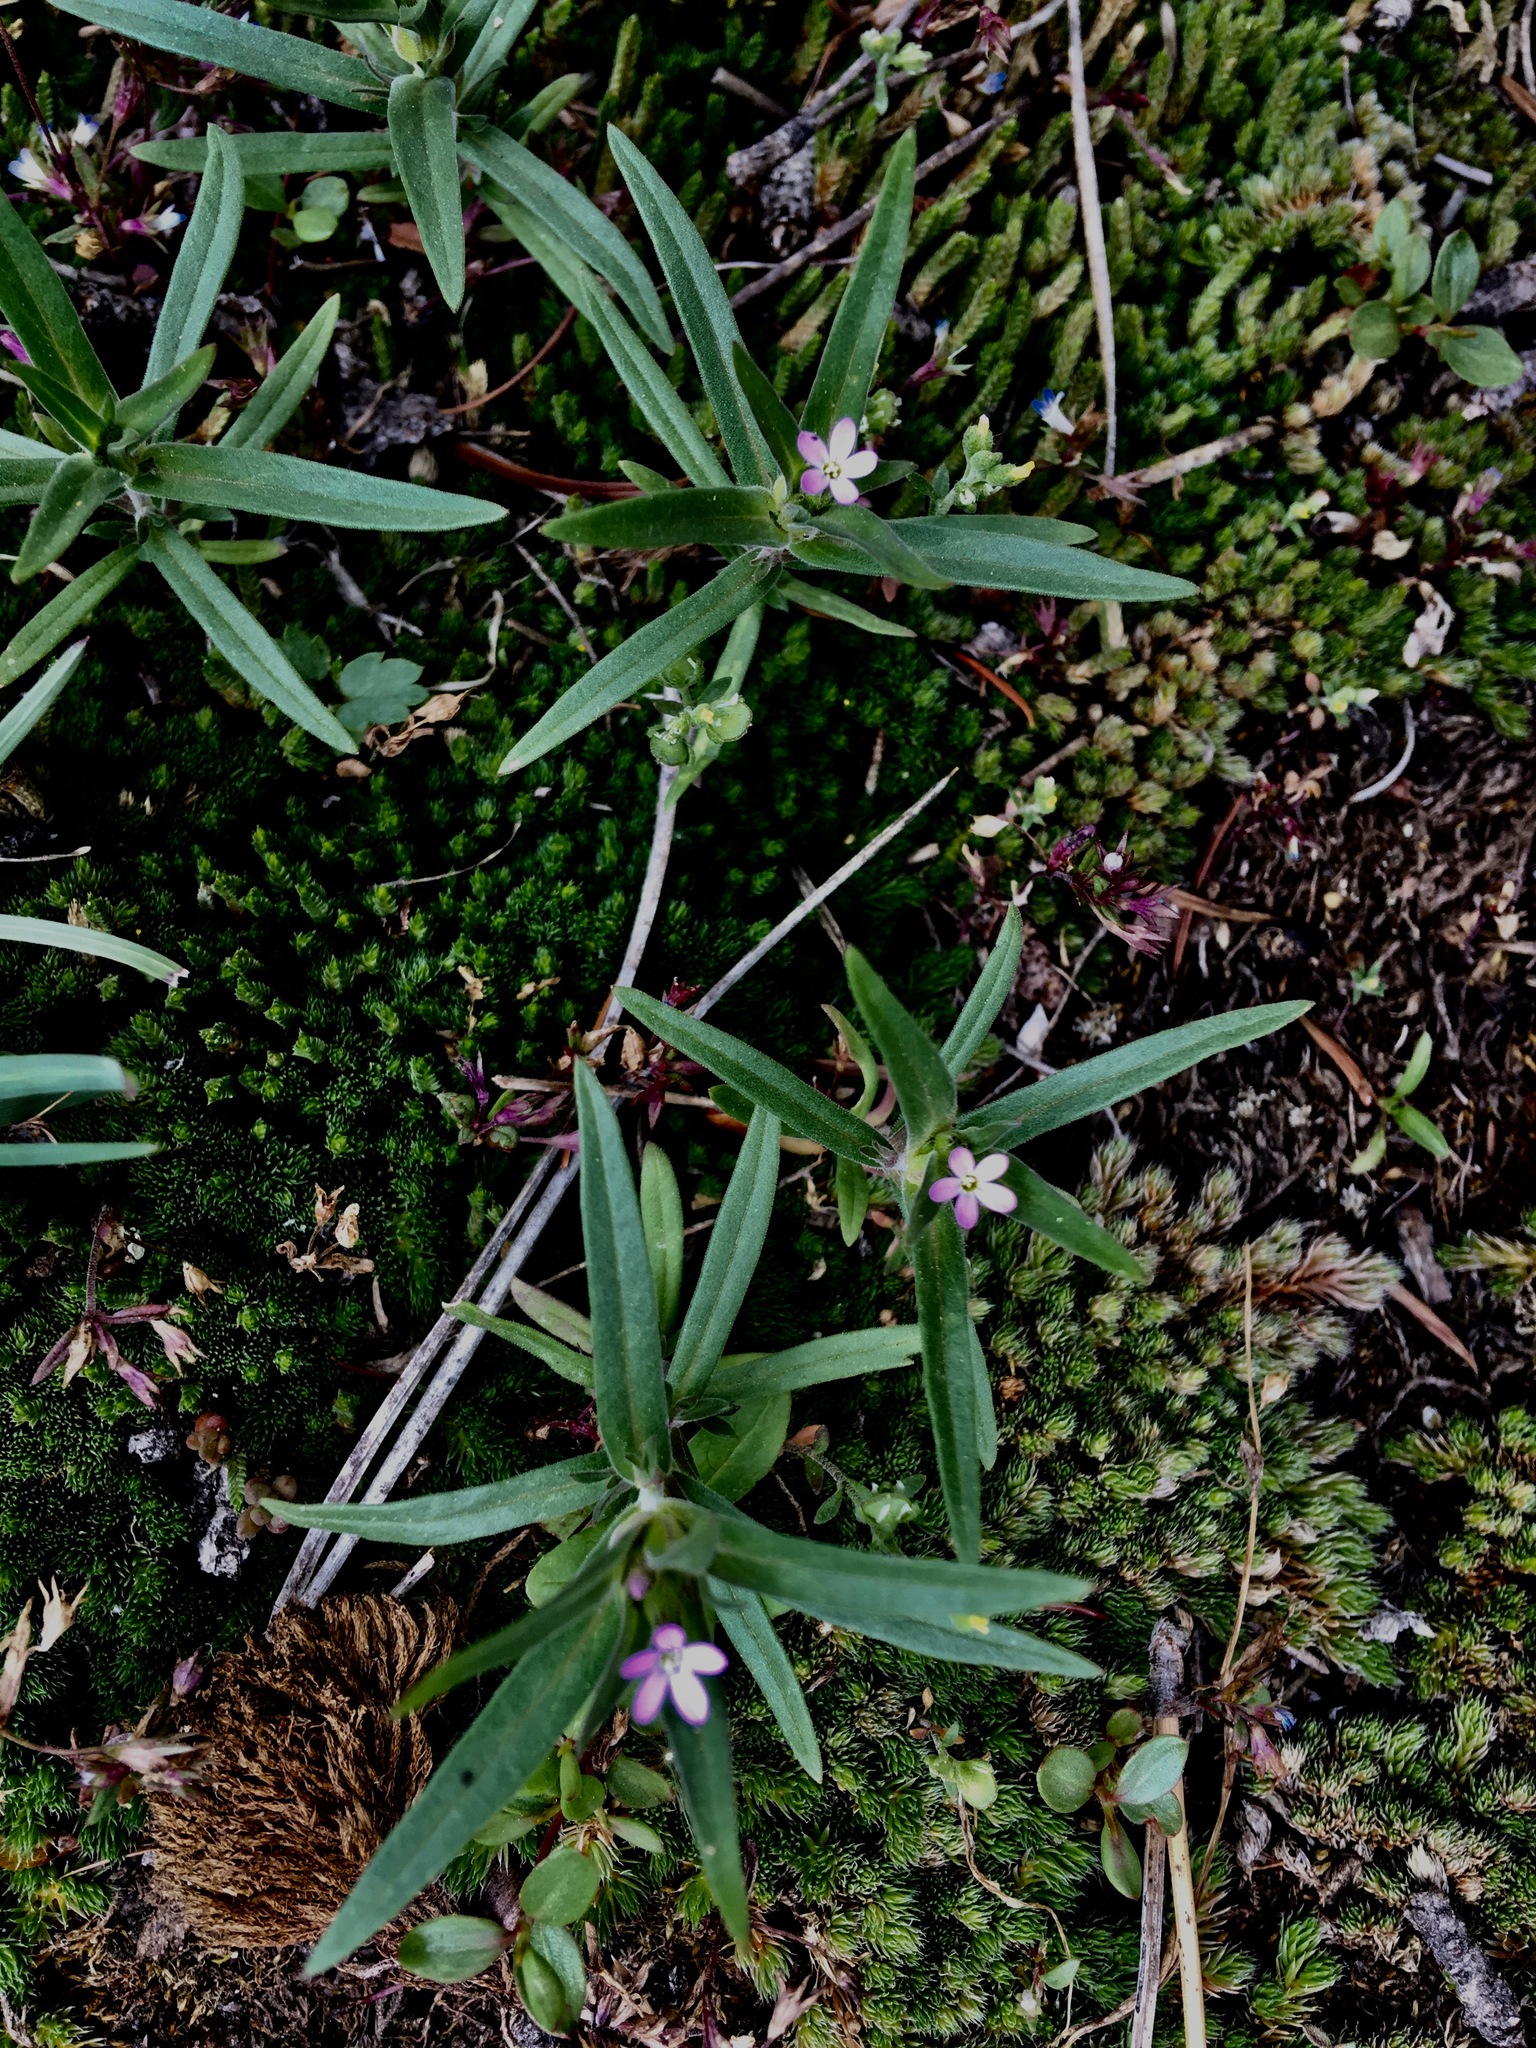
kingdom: Plantae
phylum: Tracheophyta
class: Magnoliopsida
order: Ericales
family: Polemoniaceae
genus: Collomia
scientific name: Collomia linearis
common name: Tiny trumpet
